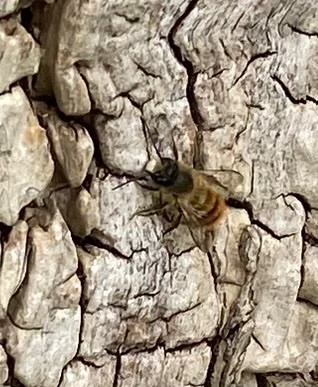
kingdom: Animalia
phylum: Arthropoda
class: Insecta
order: Hymenoptera
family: Megachilidae
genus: Osmia
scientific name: Osmia bicornis
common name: Red mason bee
